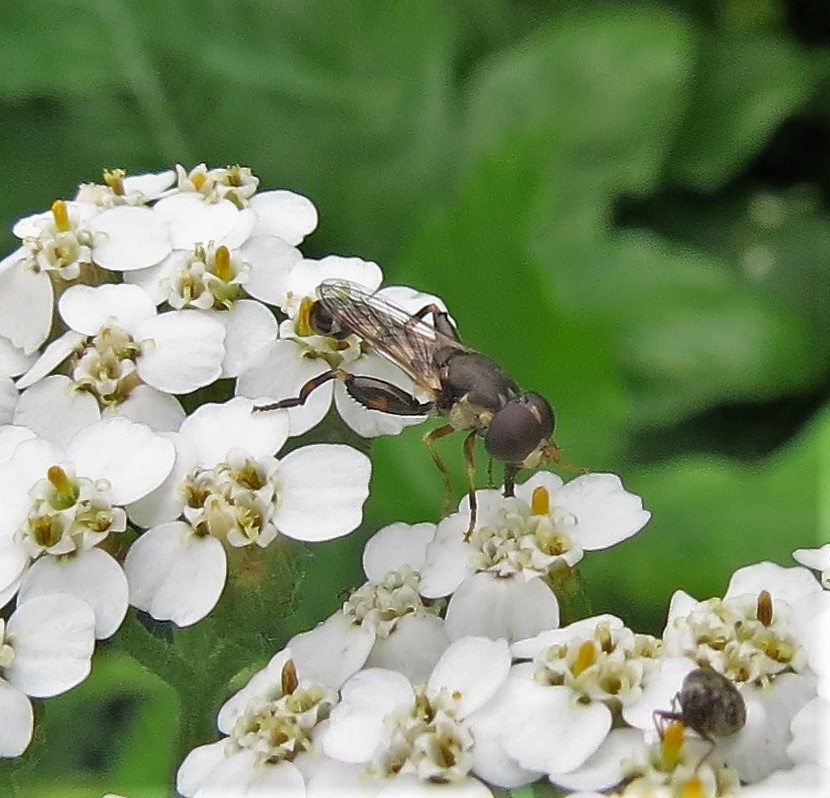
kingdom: Animalia
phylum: Arthropoda
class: Insecta
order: Diptera
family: Syrphidae
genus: Syritta
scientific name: Syritta pipiens
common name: Hover fly
